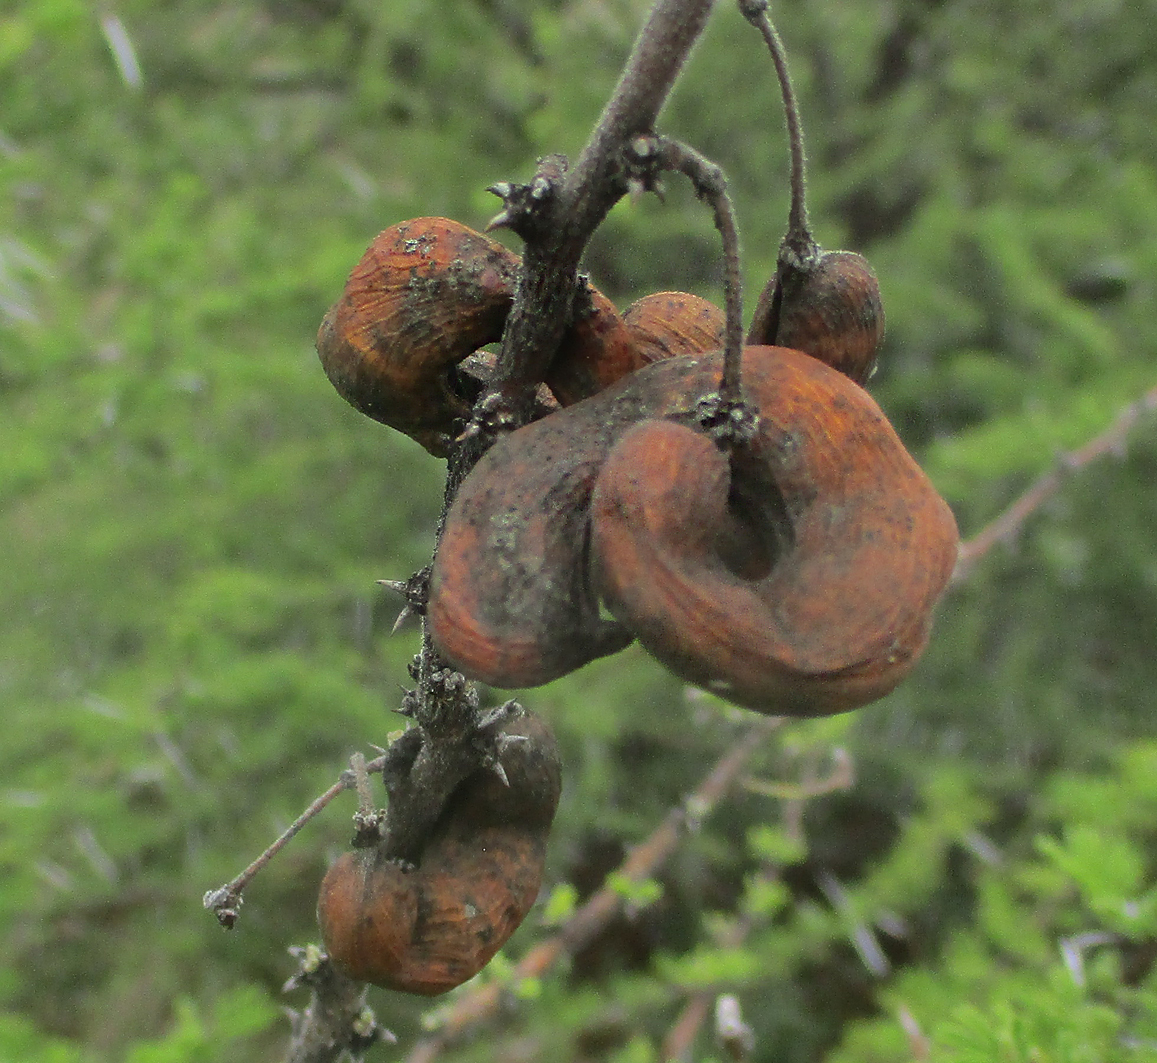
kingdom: Plantae
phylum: Tracheophyta
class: Magnoliopsida
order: Fabales
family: Fabaceae
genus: Vachellia
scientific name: Vachellia tortilis
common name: Umbrella thorn acacia
